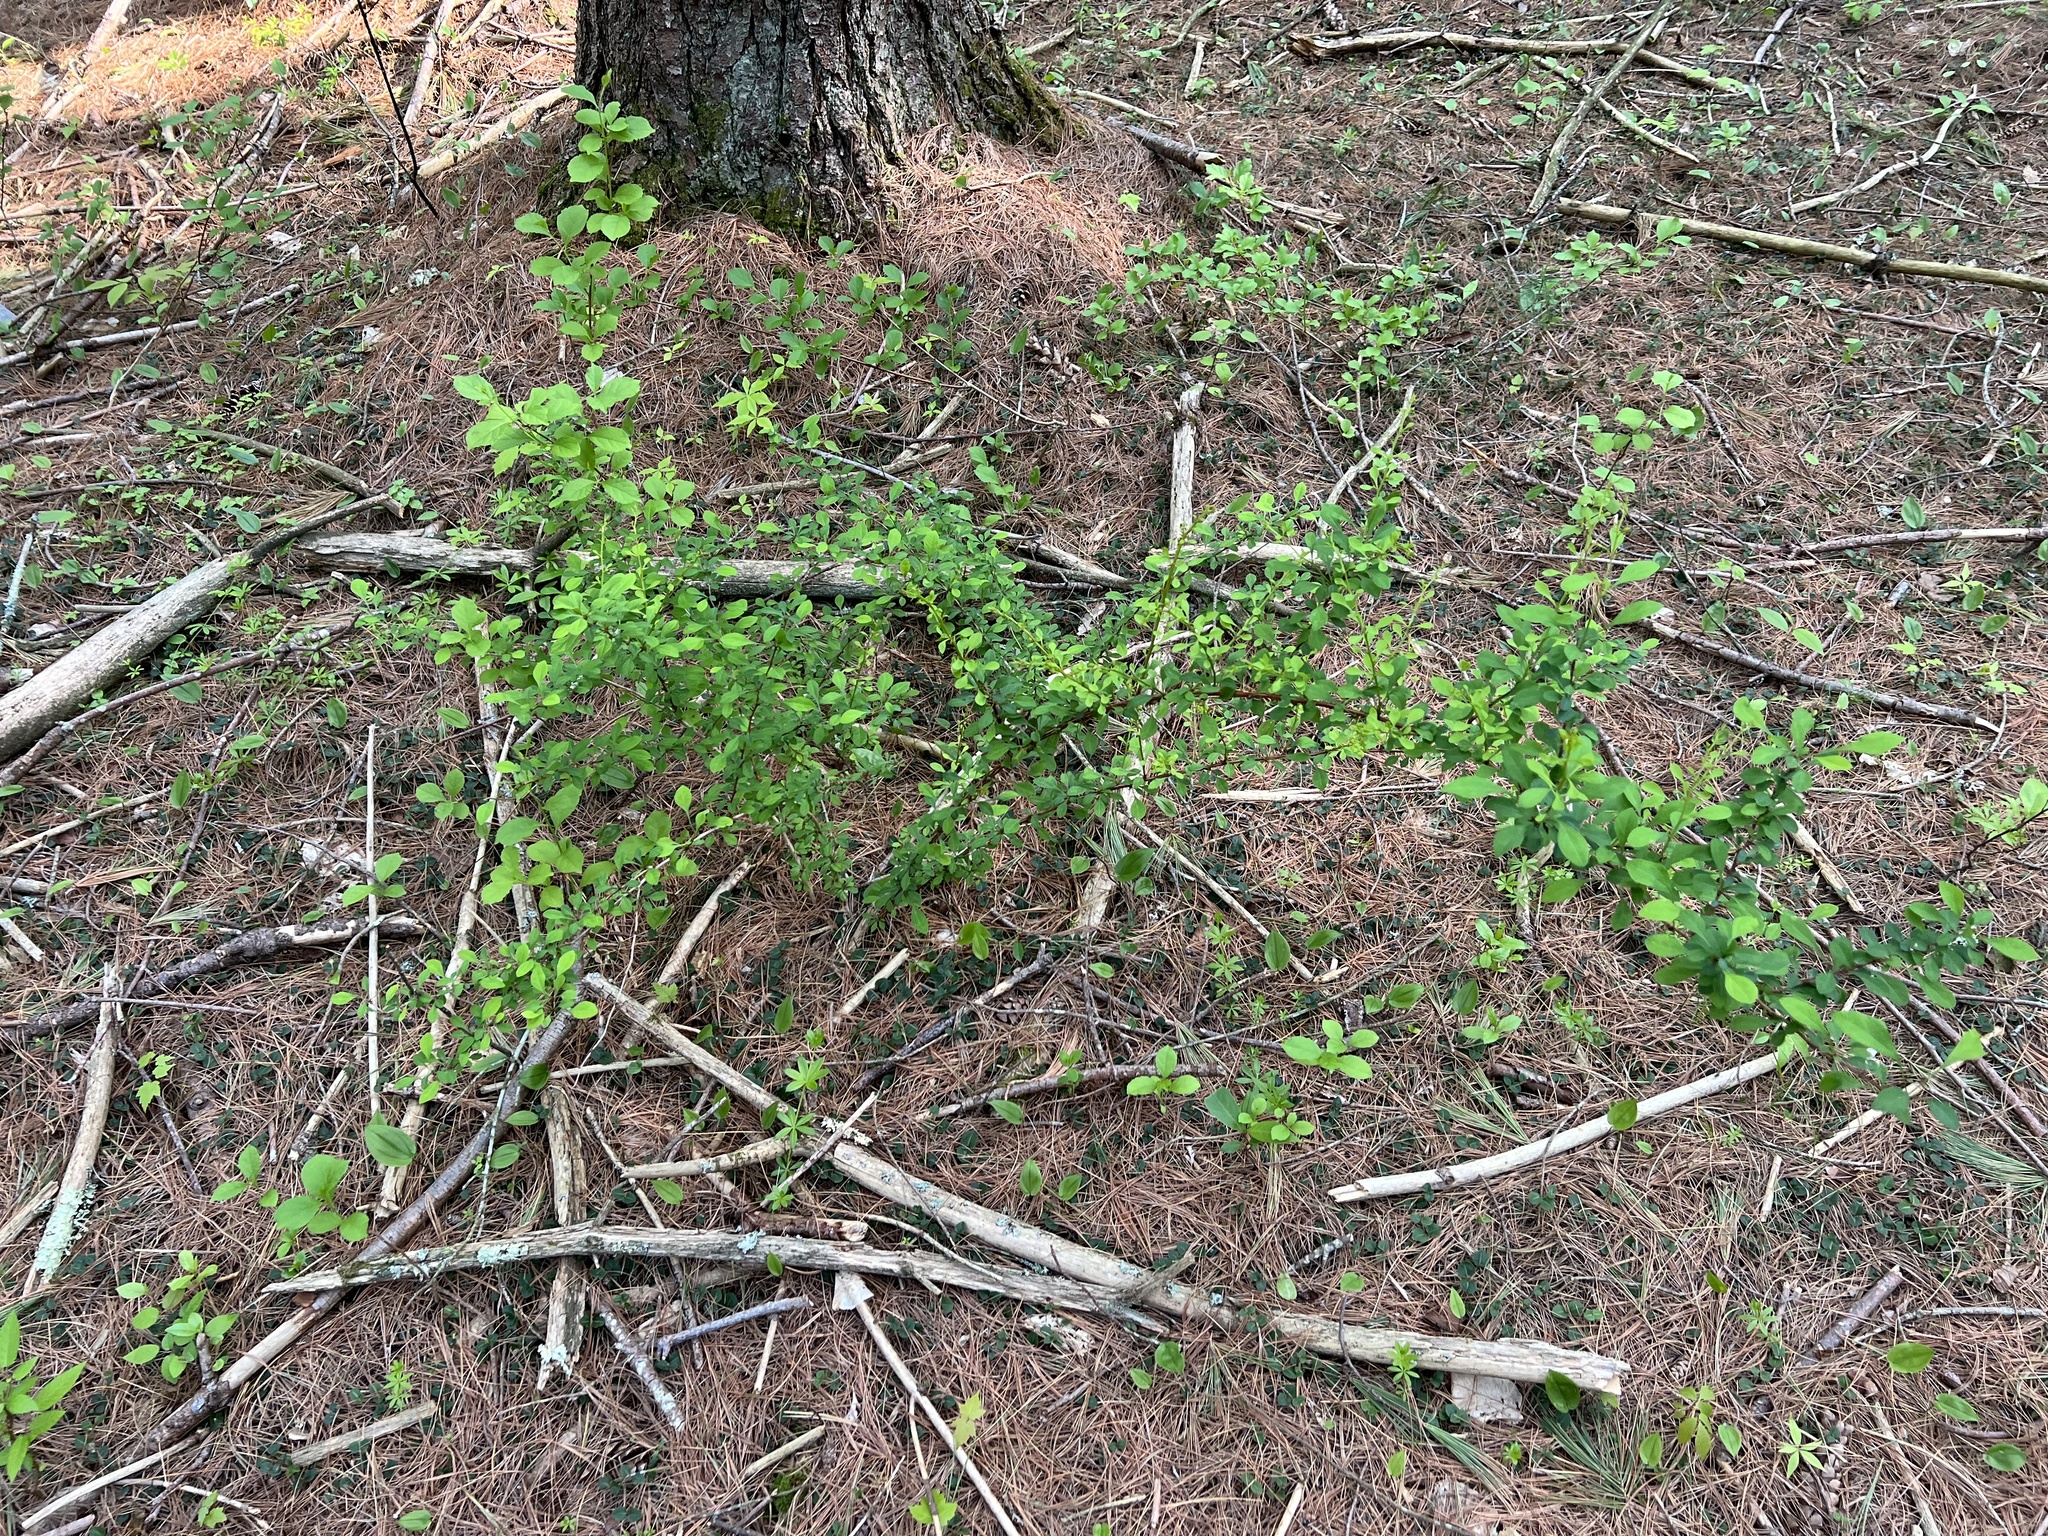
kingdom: Plantae
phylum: Tracheophyta
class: Magnoliopsida
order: Ranunculales
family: Berberidaceae
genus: Berberis
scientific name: Berberis thunbergii
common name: Japanese barberry
